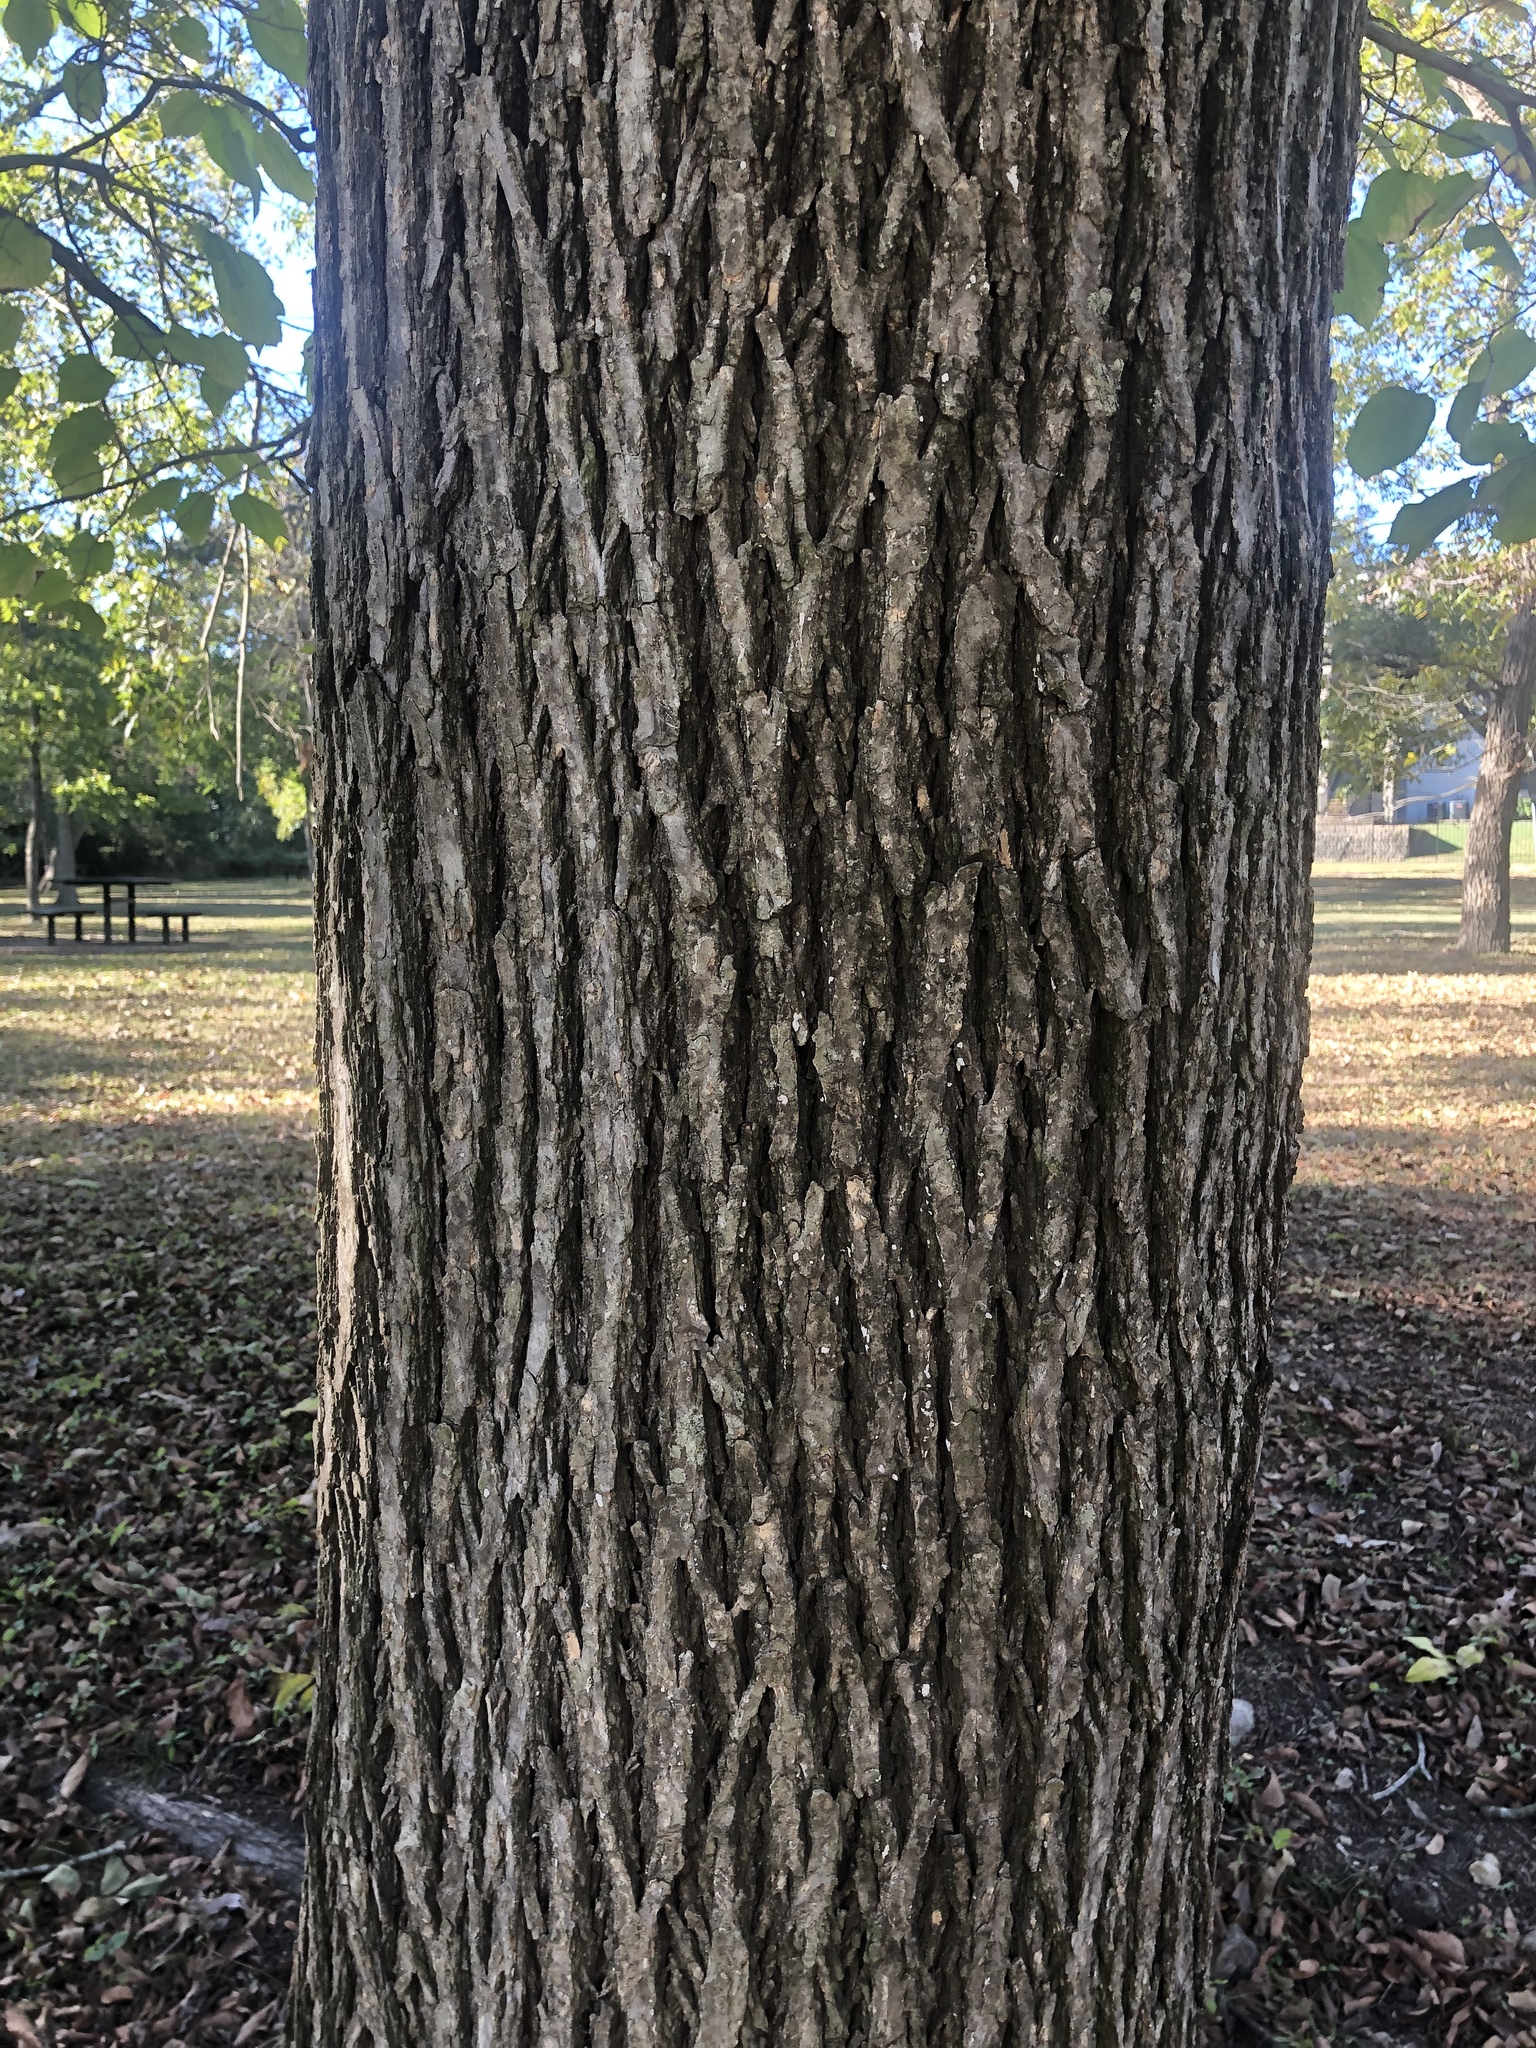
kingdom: Plantae
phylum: Tracheophyta
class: Magnoliopsida
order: Rosales
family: Moraceae
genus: Morus
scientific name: Morus rubra
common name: Red mulberry
